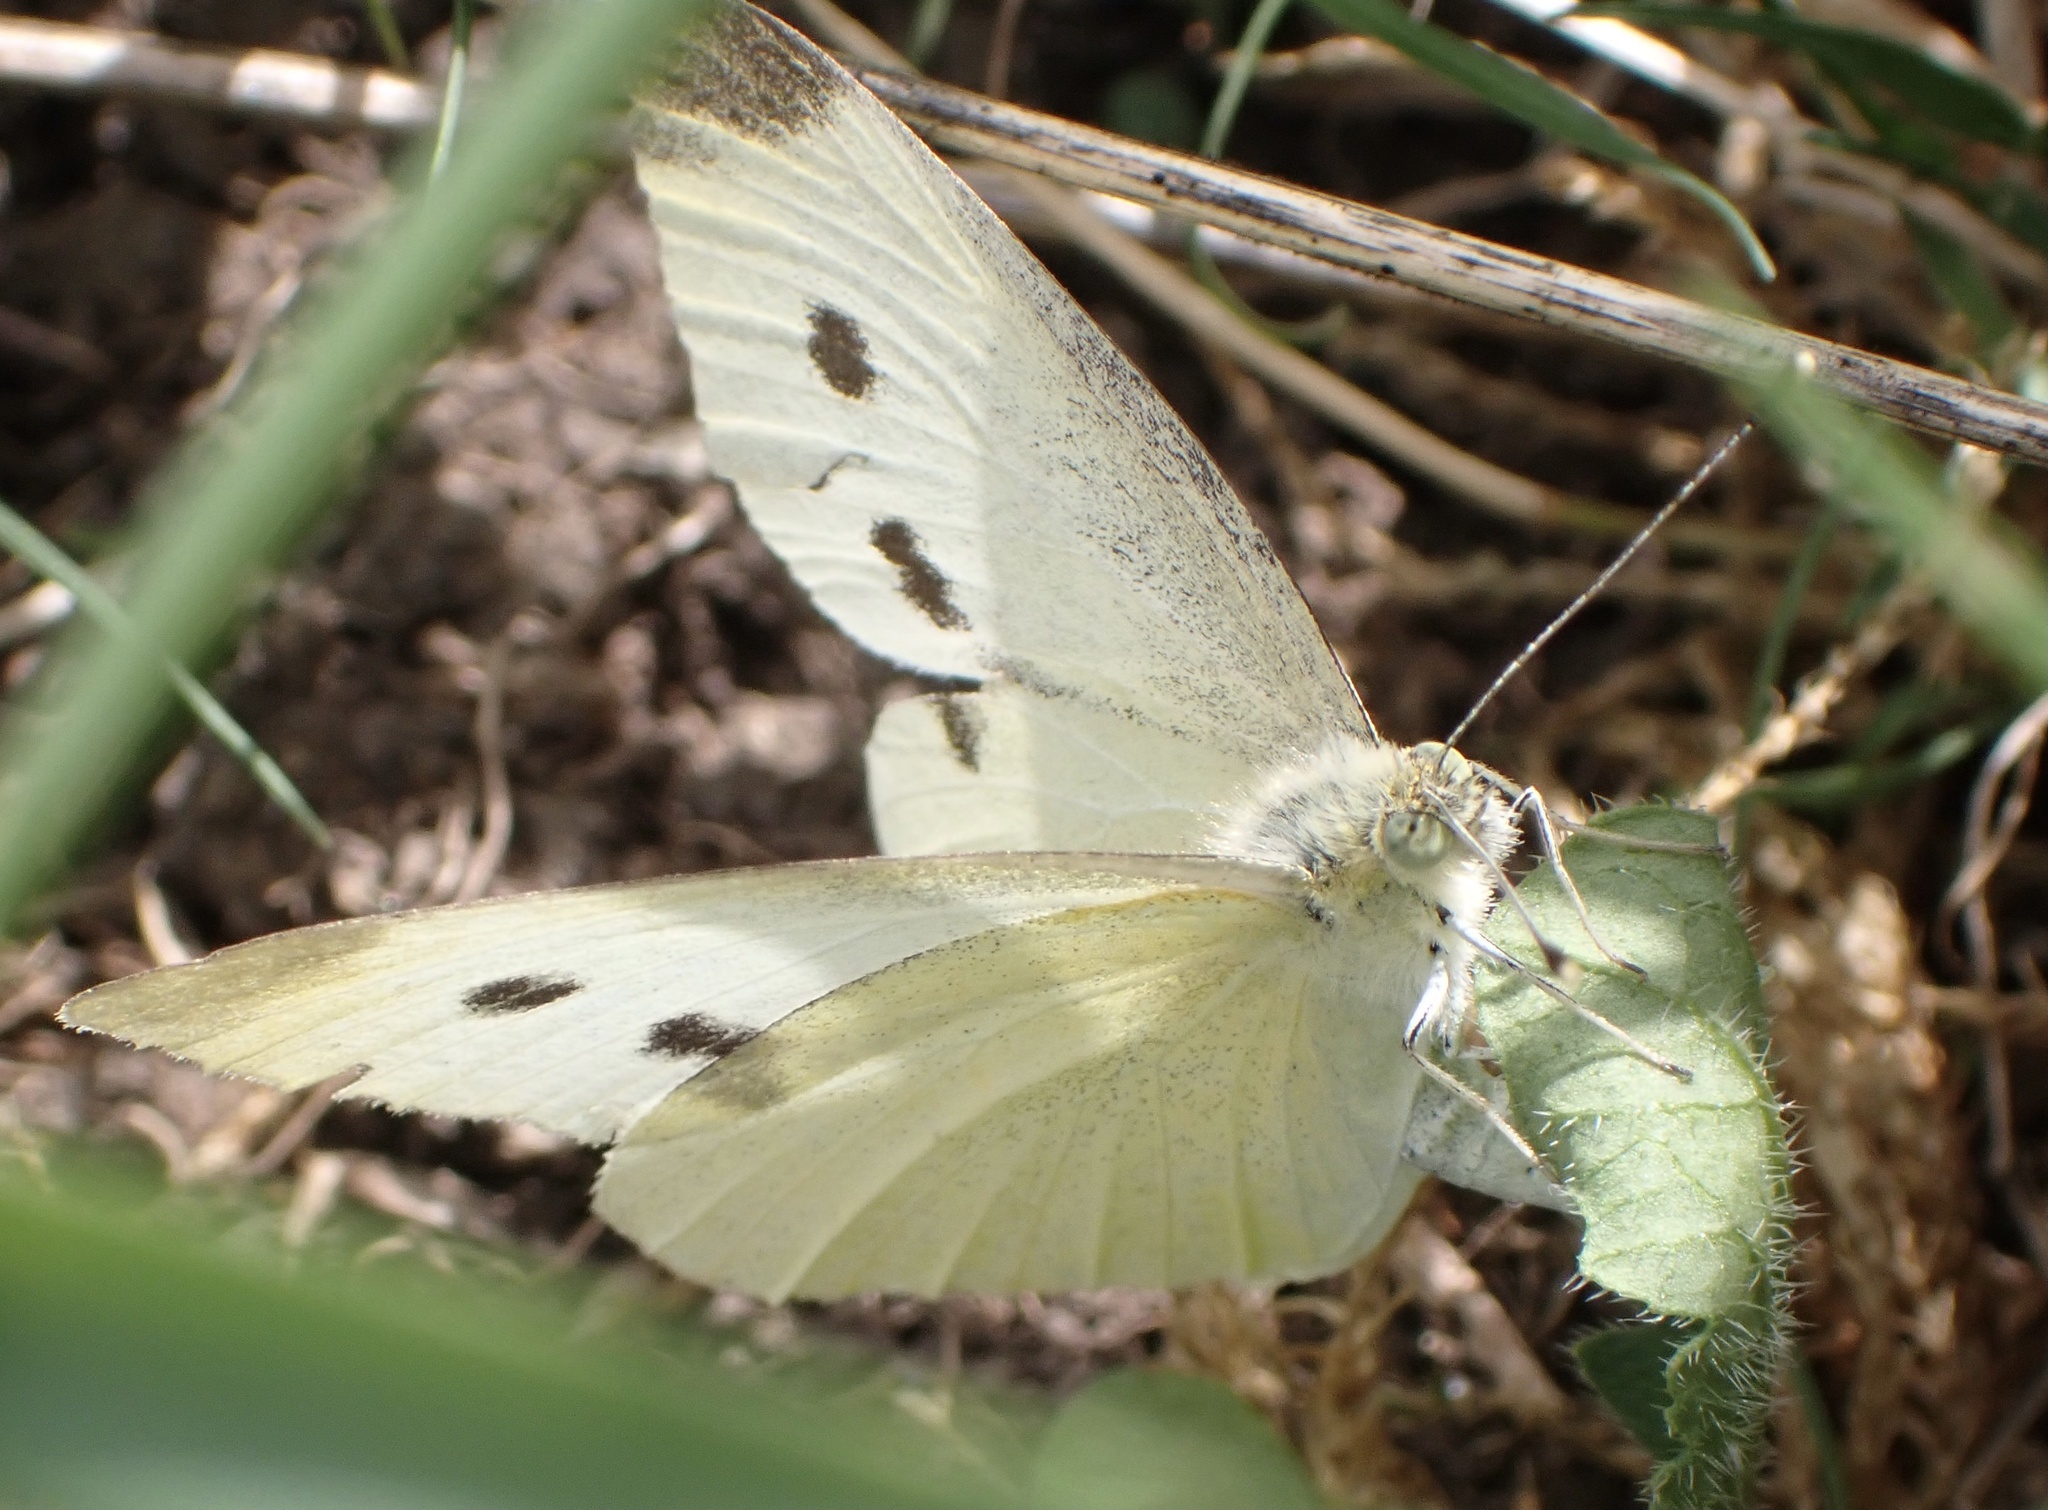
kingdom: Animalia
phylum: Arthropoda
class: Insecta
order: Lepidoptera
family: Pieridae
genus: Pieris
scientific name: Pieris rapae
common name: Small white
